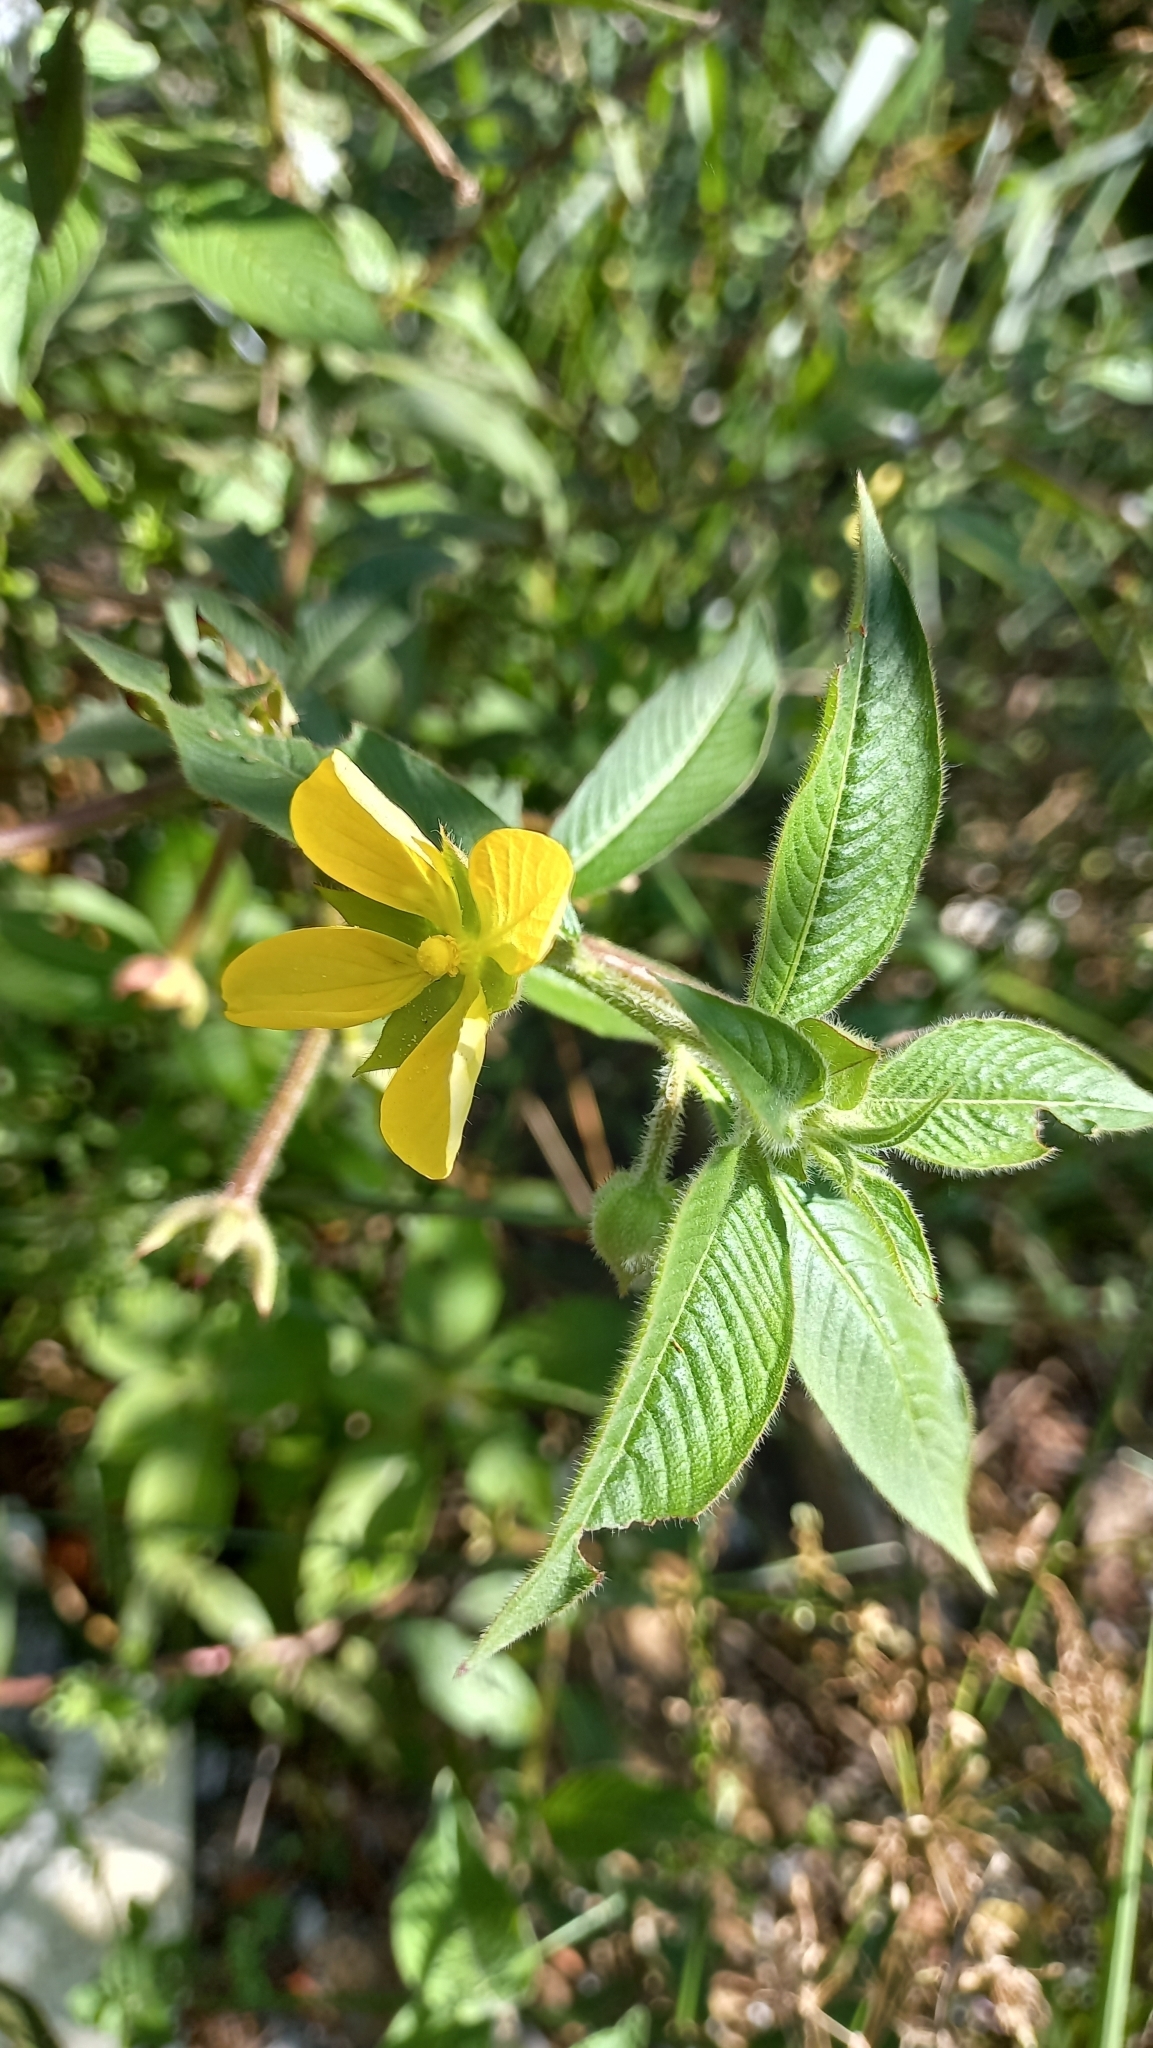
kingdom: Plantae
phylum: Tracheophyta
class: Magnoliopsida
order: Myrtales
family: Onagraceae
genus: Ludwigia
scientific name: Ludwigia octovalvis
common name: Water-primrose
